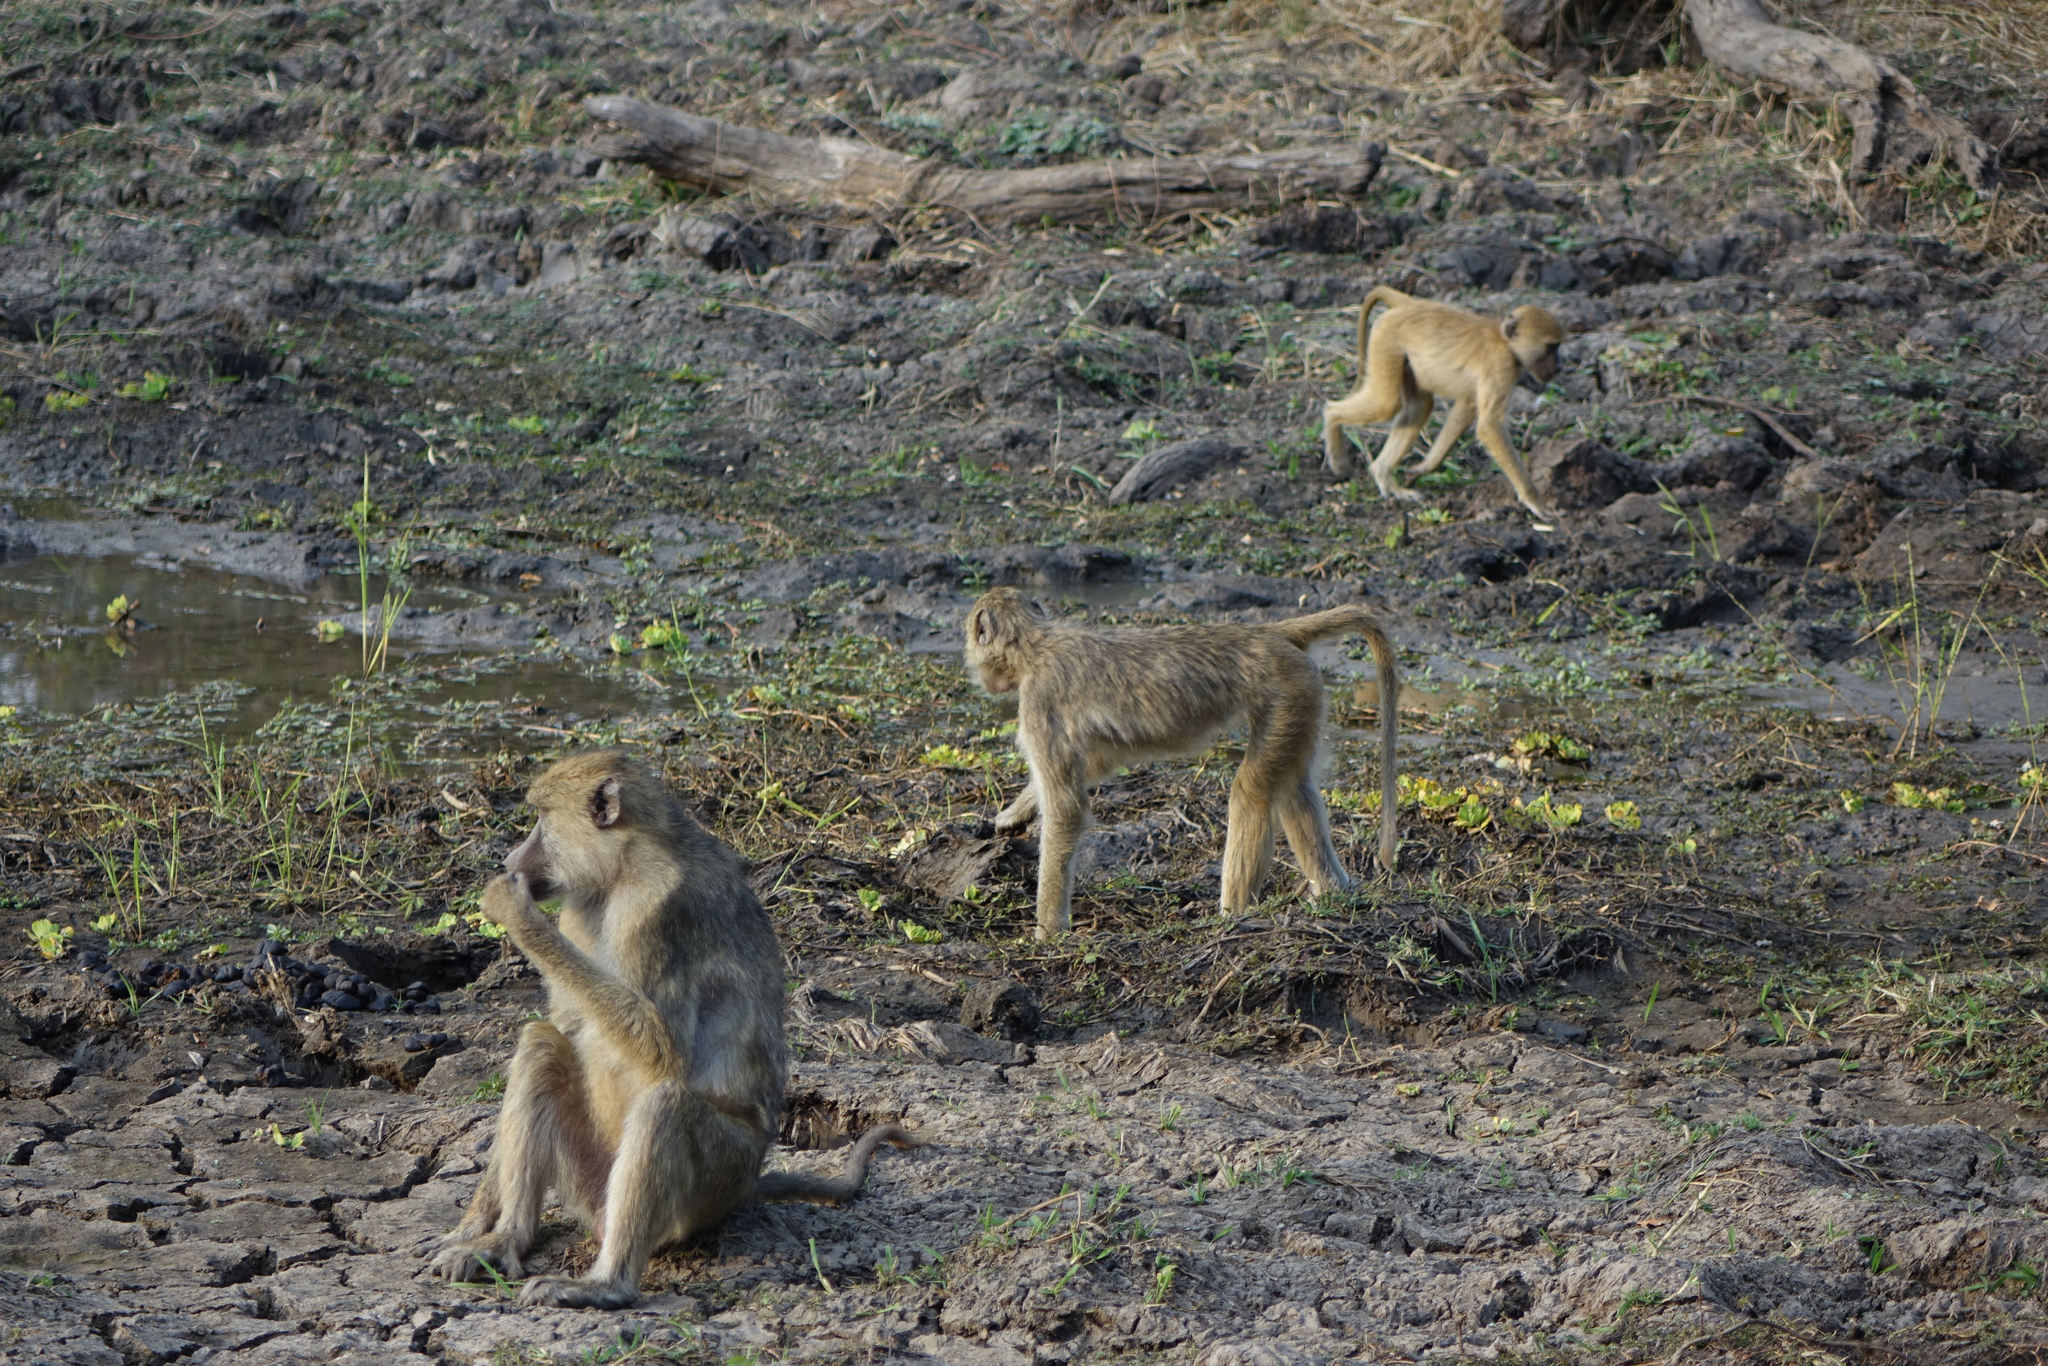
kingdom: Animalia
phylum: Chordata
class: Mammalia
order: Primates
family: Cercopithecidae
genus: Papio
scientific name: Papio cynocephalus
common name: Yellow baboon
